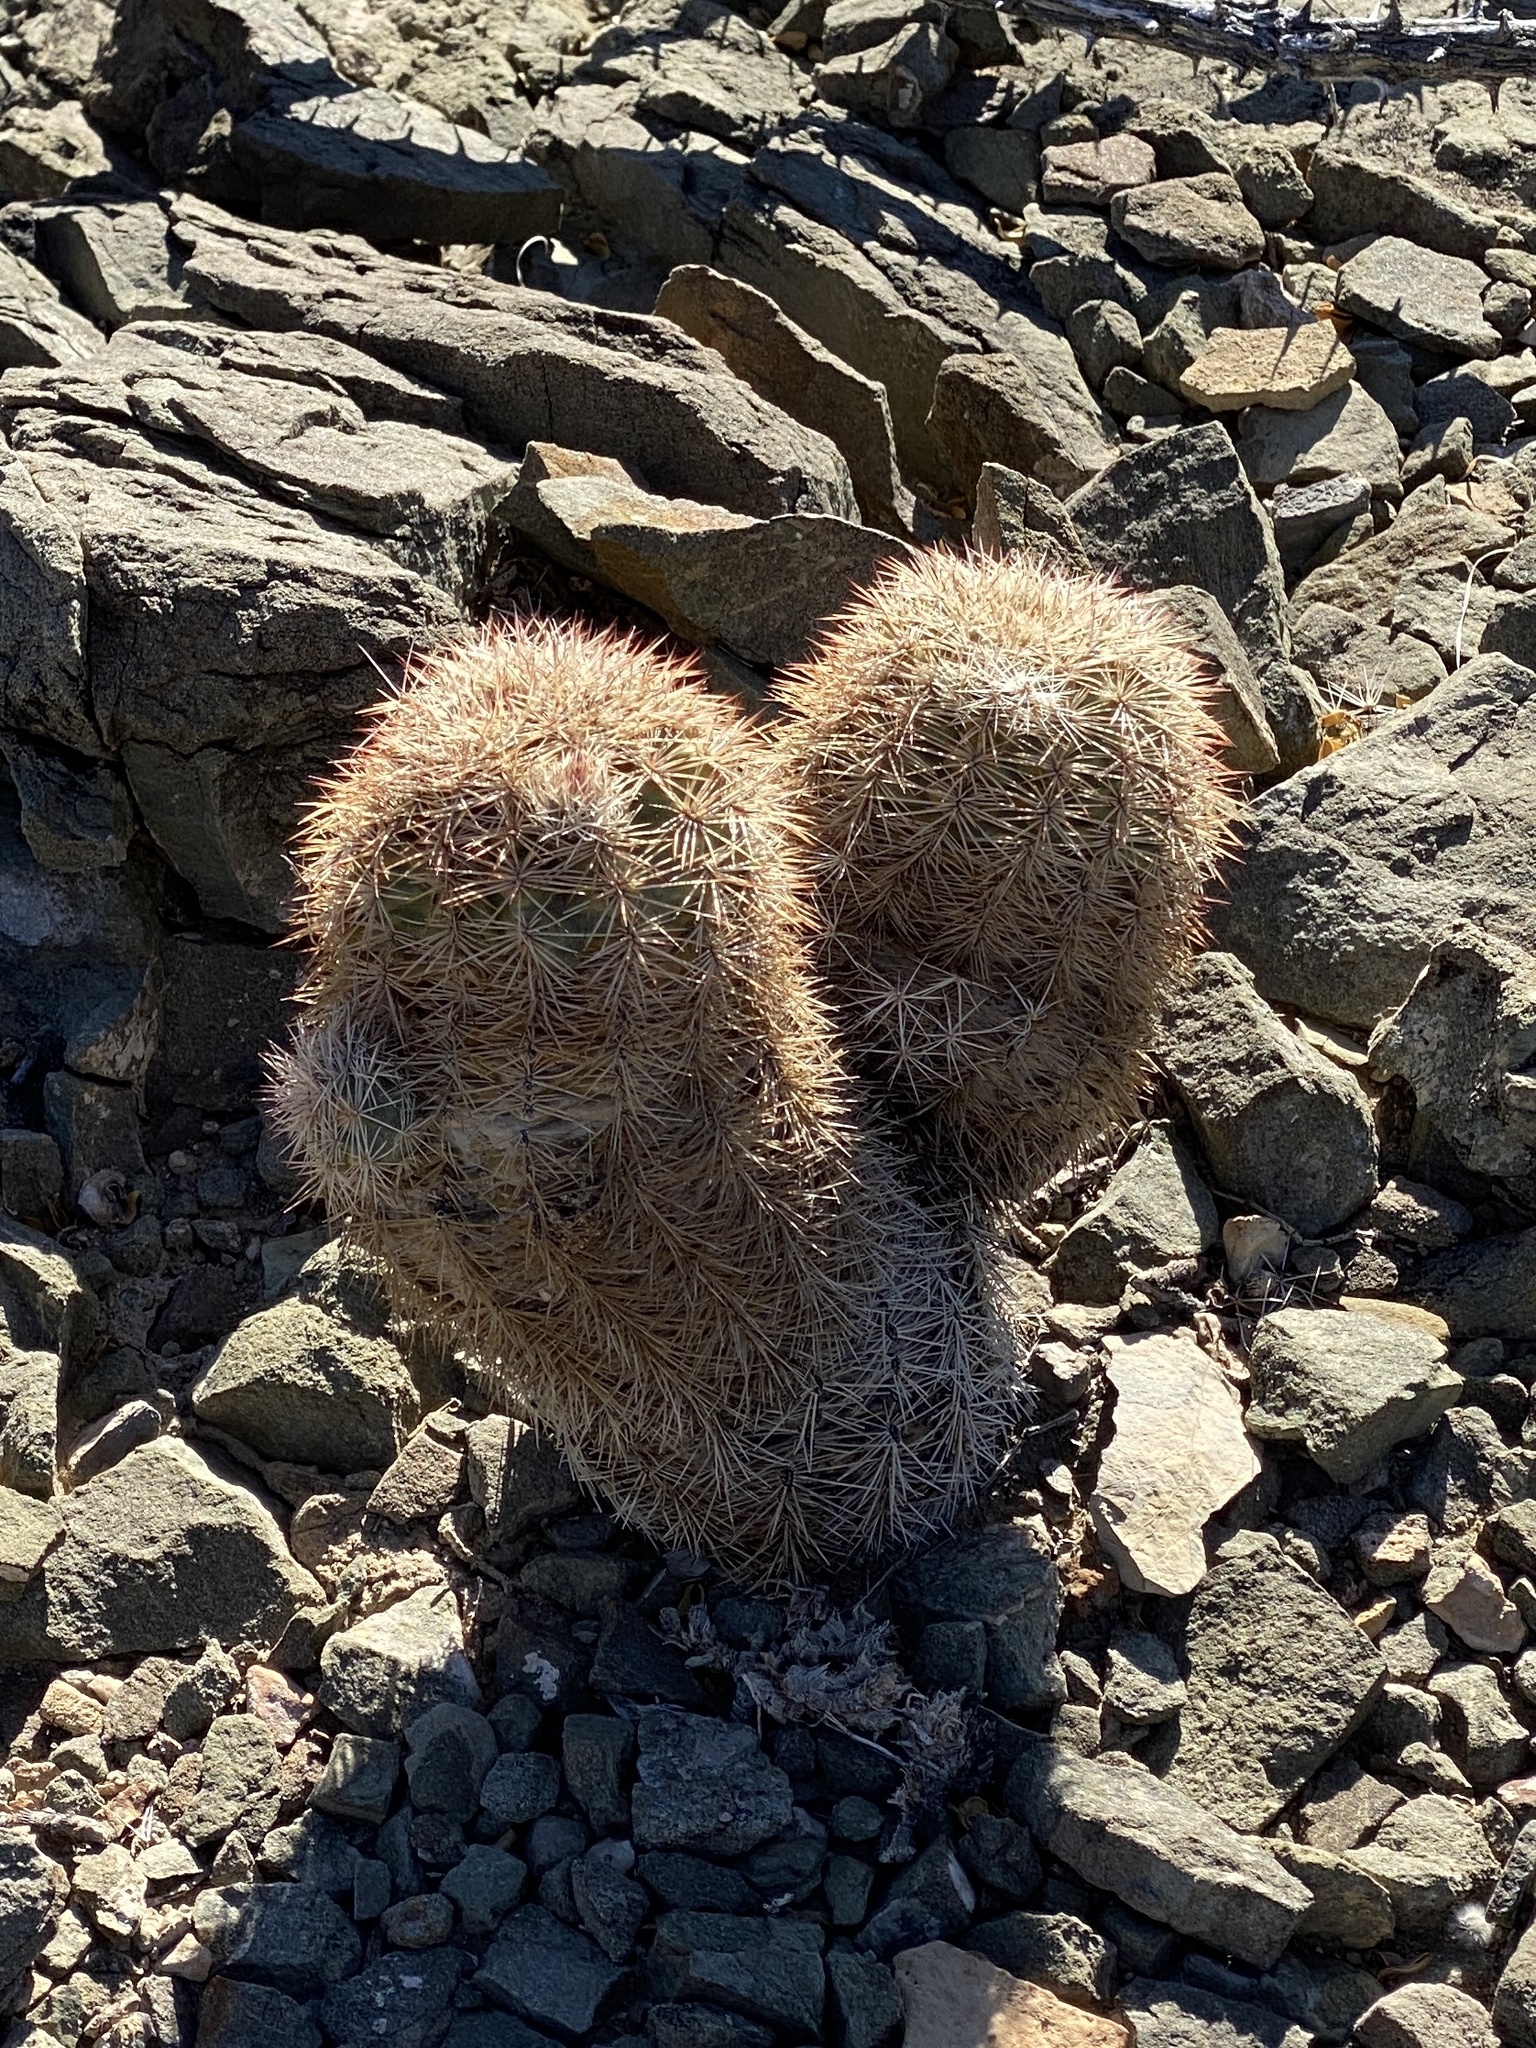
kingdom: Plantae
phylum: Tracheophyta
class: Magnoliopsida
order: Caryophyllales
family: Cactaceae
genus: Echinocereus
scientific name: Echinocereus dasyacanthus
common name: Spiny hedgehog cactus
